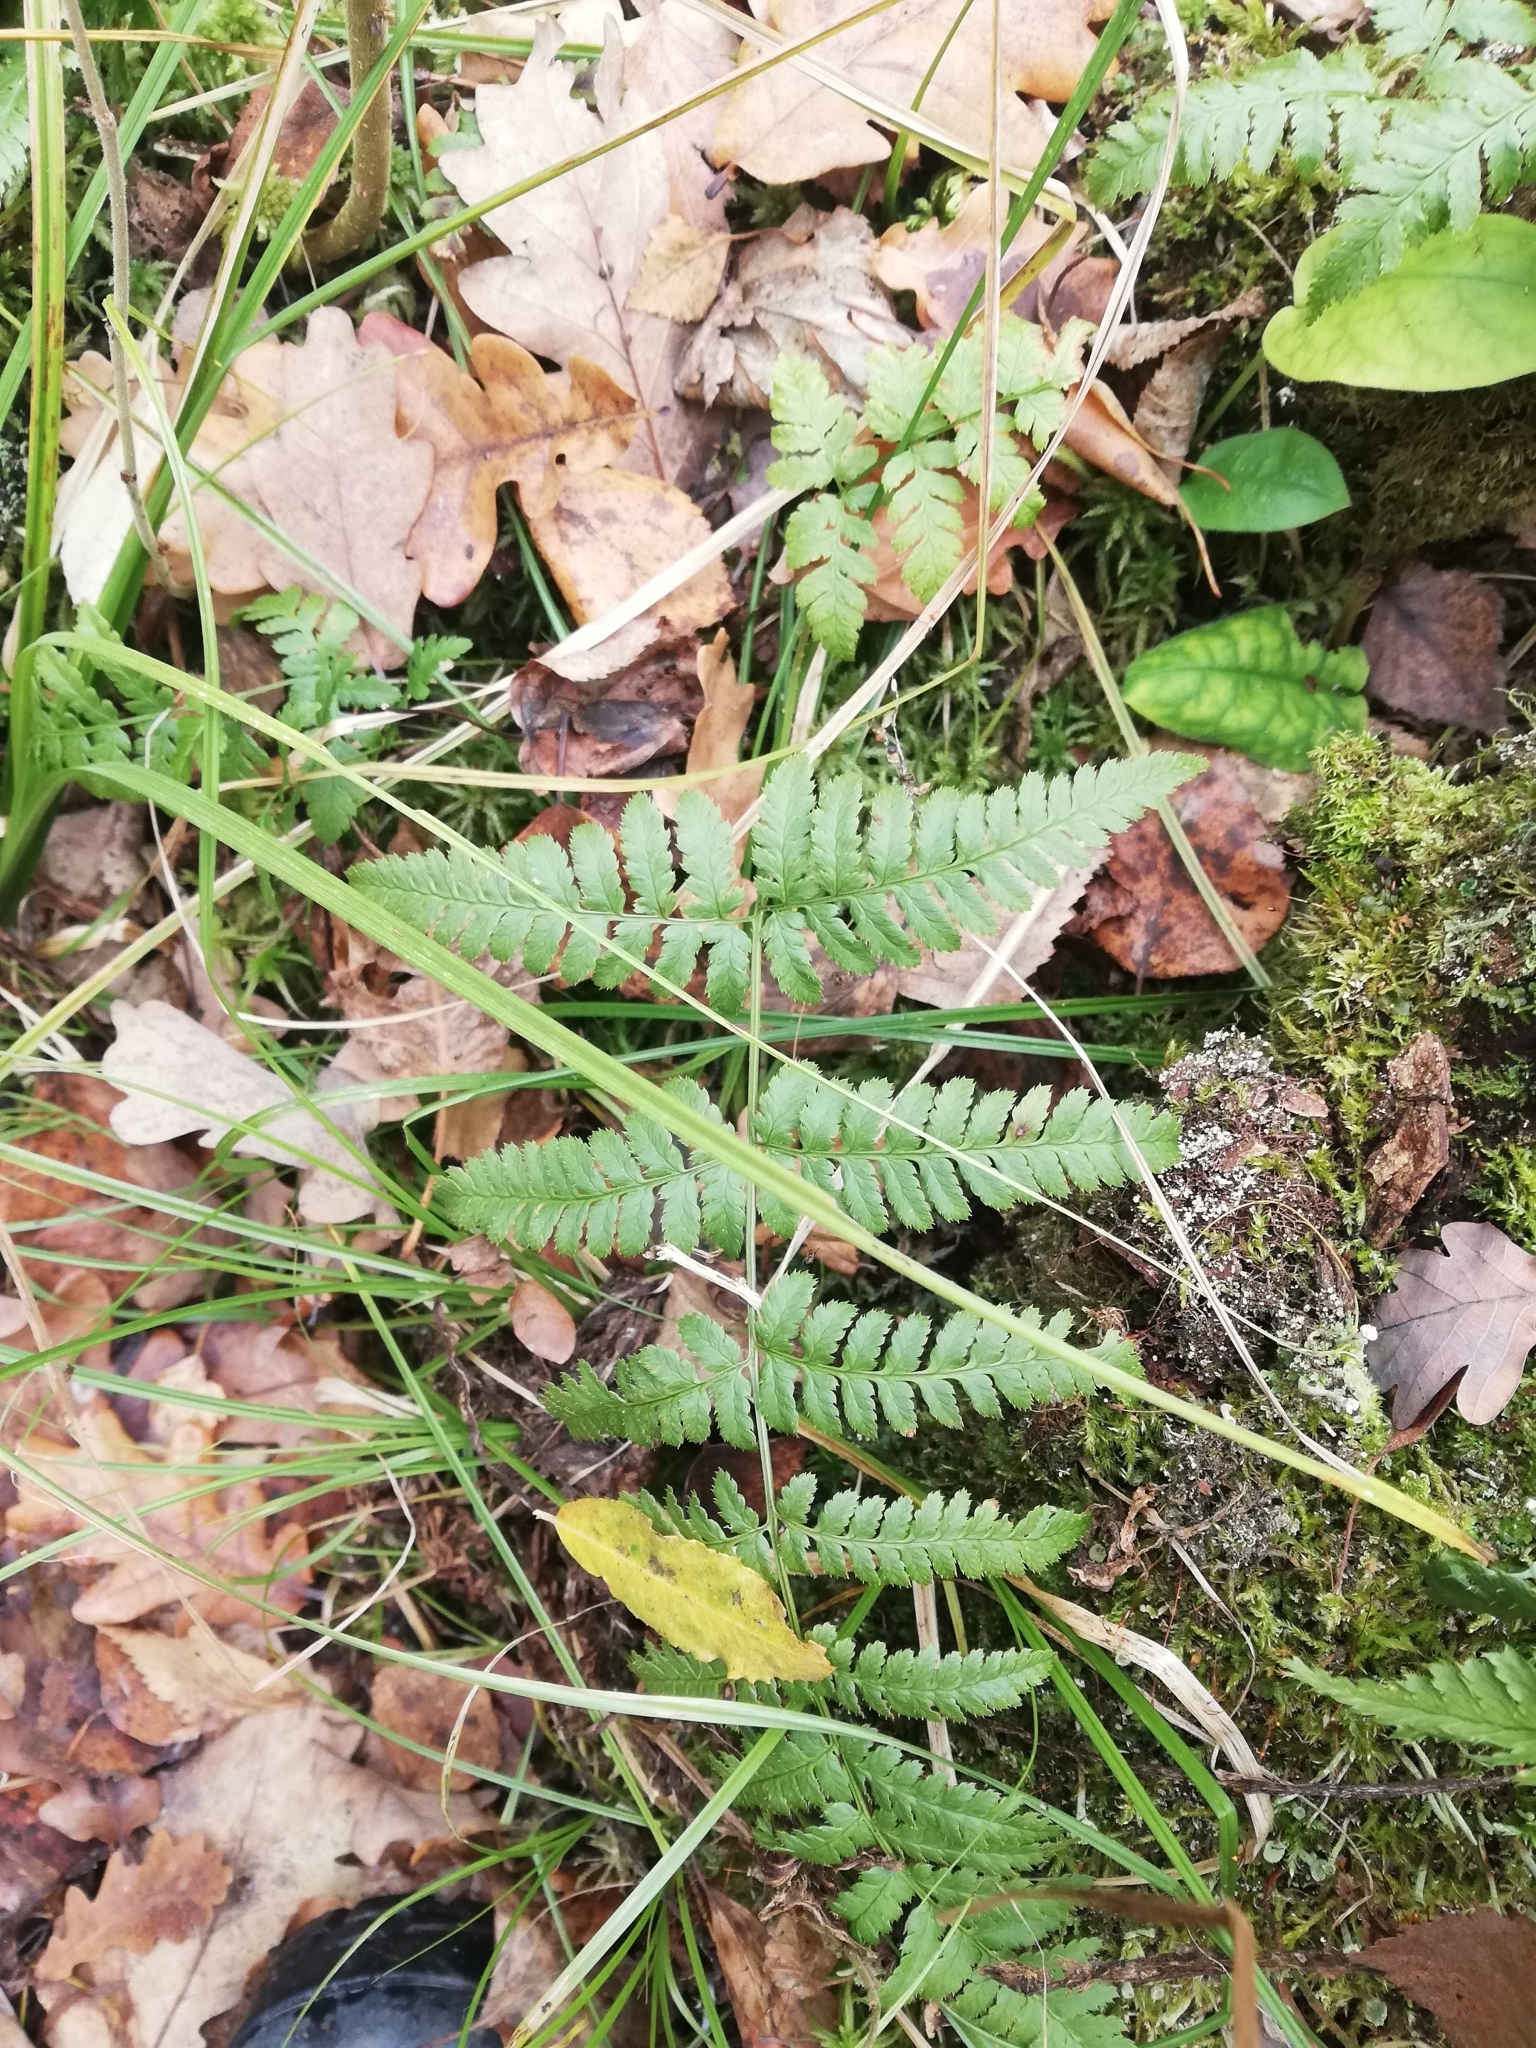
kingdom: Plantae
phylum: Tracheophyta
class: Polypodiopsida
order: Polypodiales
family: Dryopteridaceae
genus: Dryopteris
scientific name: Dryopteris carthusiana
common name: Narrow buckler-fern
